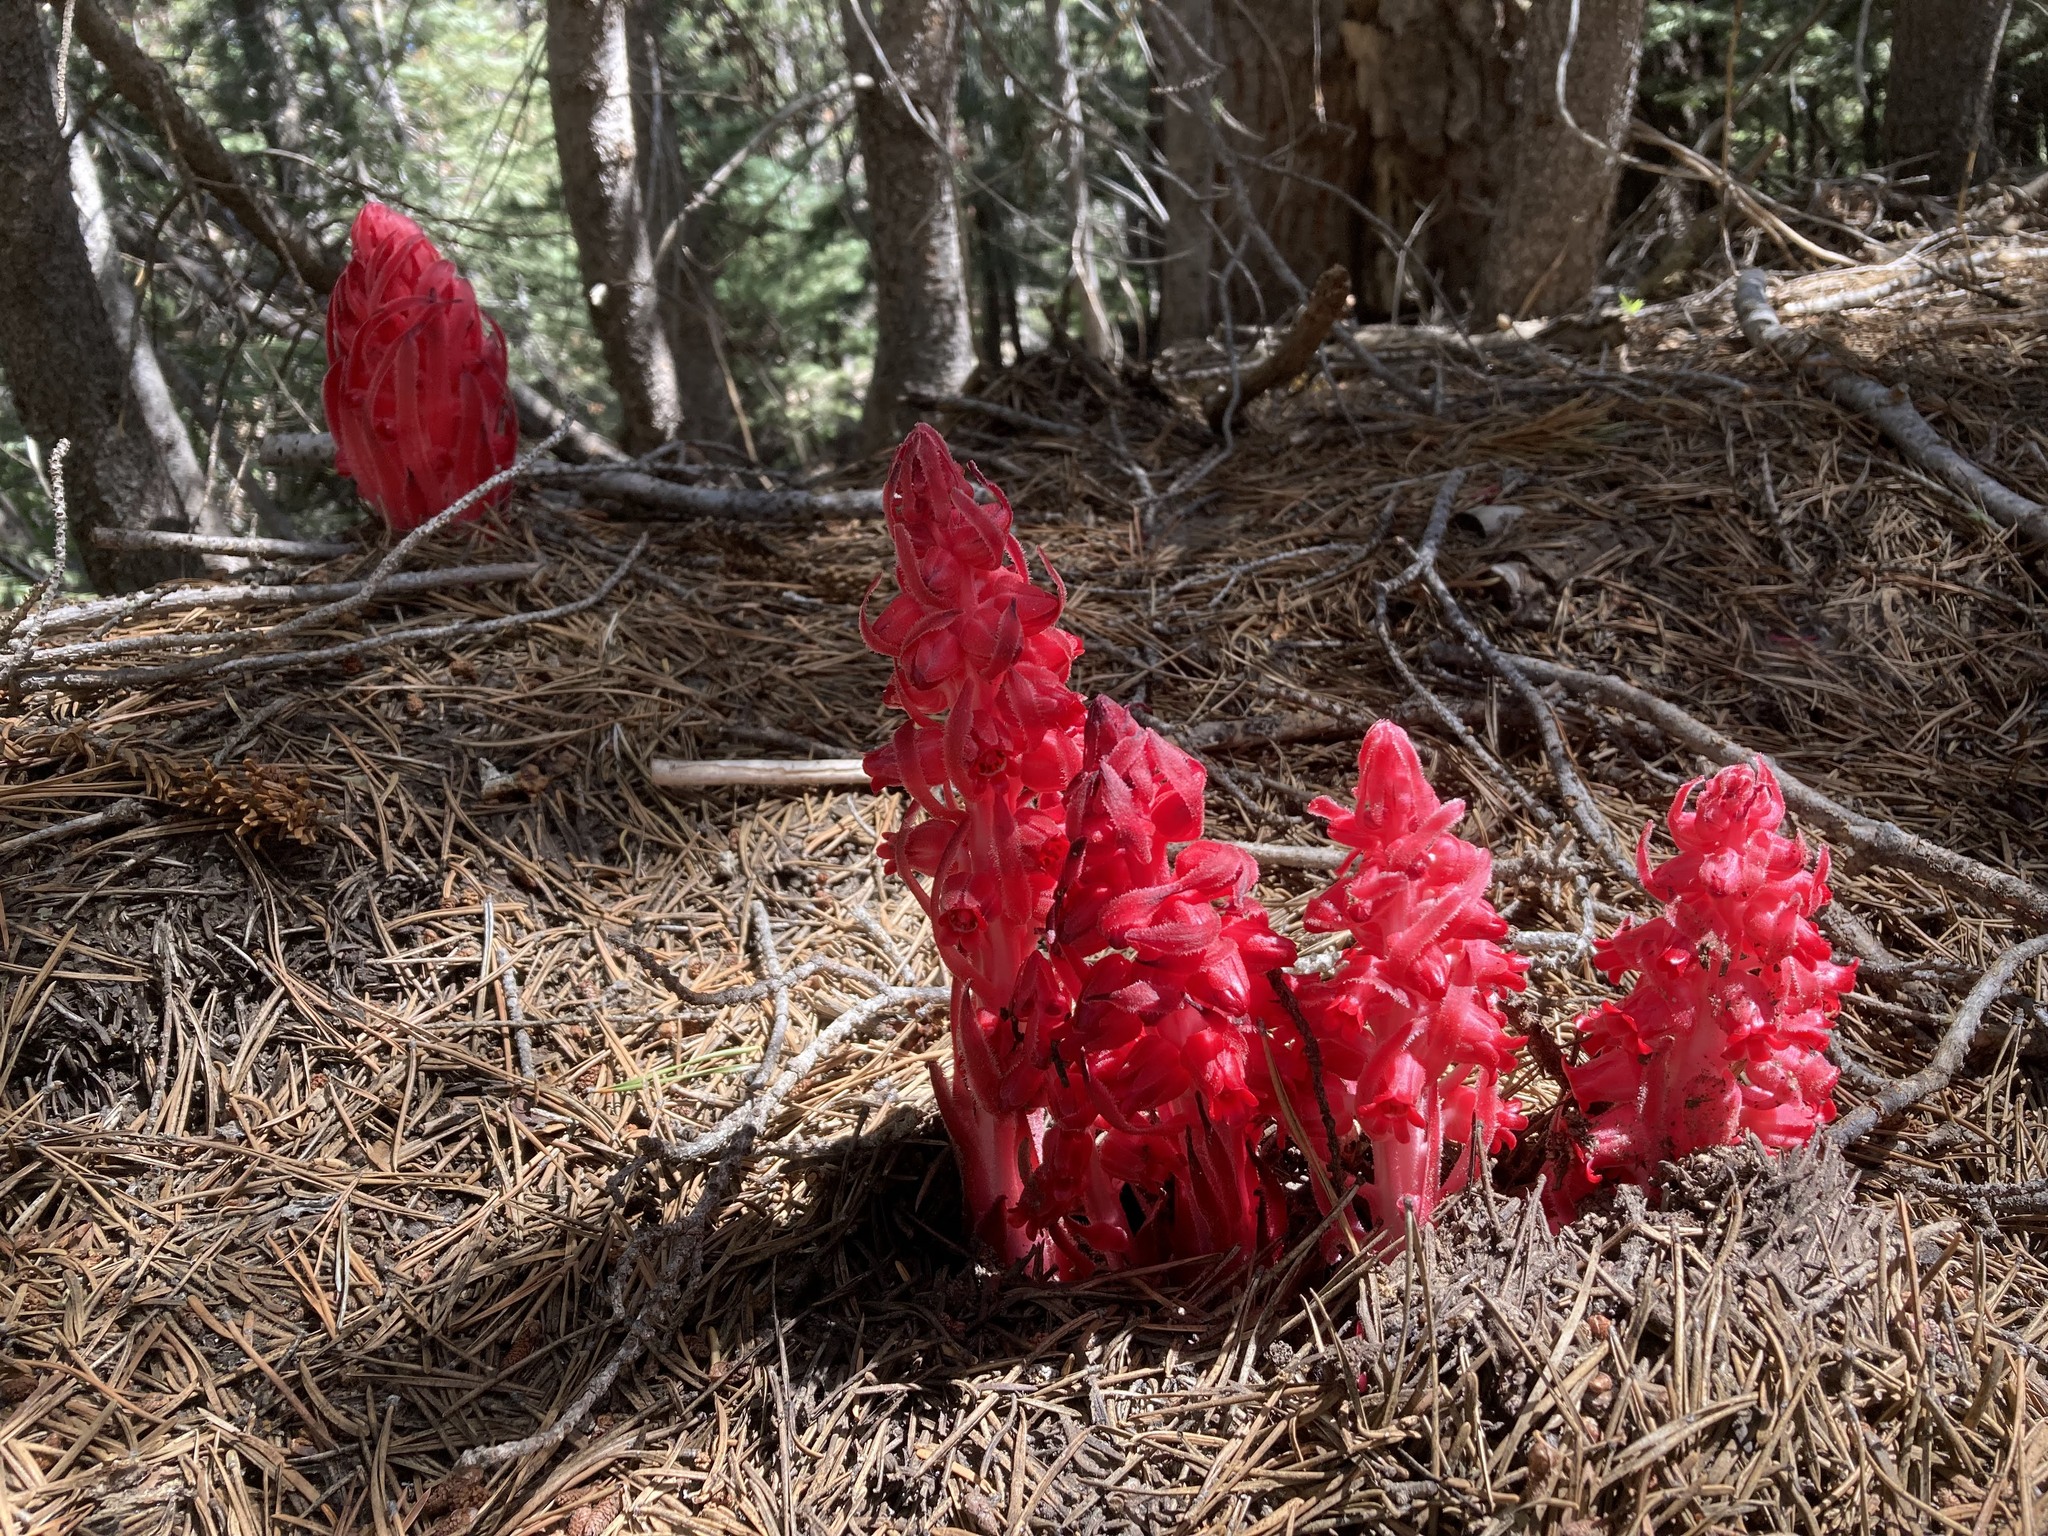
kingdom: Plantae
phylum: Tracheophyta
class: Magnoliopsida
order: Ericales
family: Ericaceae
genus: Sarcodes
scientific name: Sarcodes sanguinea
